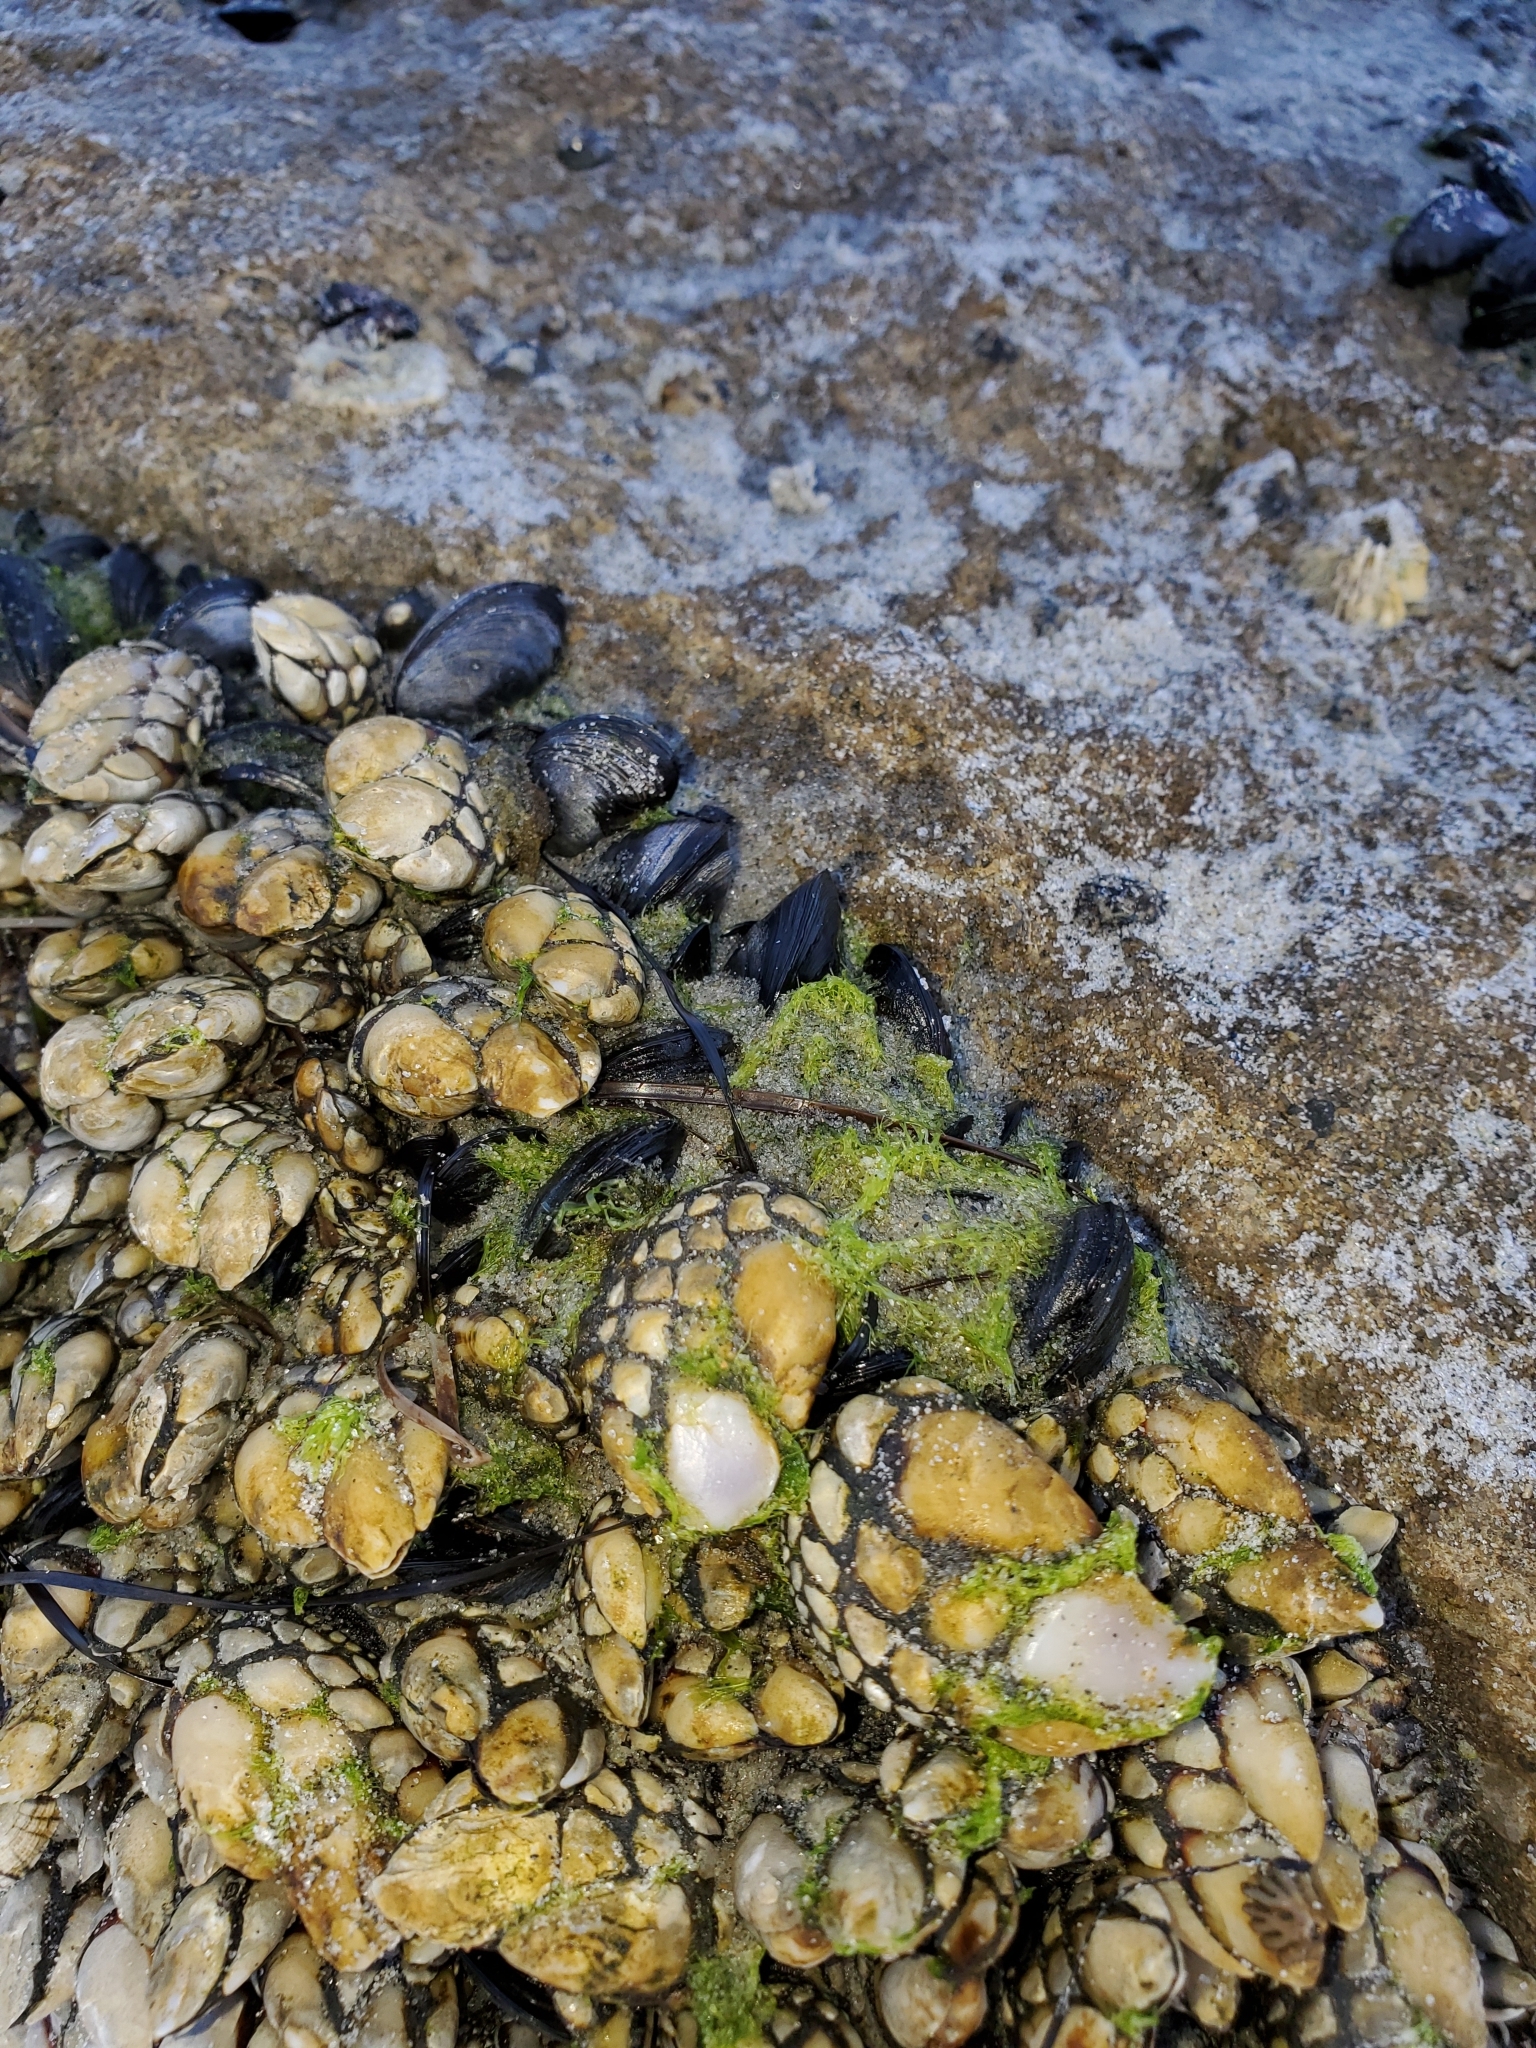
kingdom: Animalia
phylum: Arthropoda
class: Maxillopoda
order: Pedunculata
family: Pollicipedidae
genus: Pollicipes
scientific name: Pollicipes polymerus
